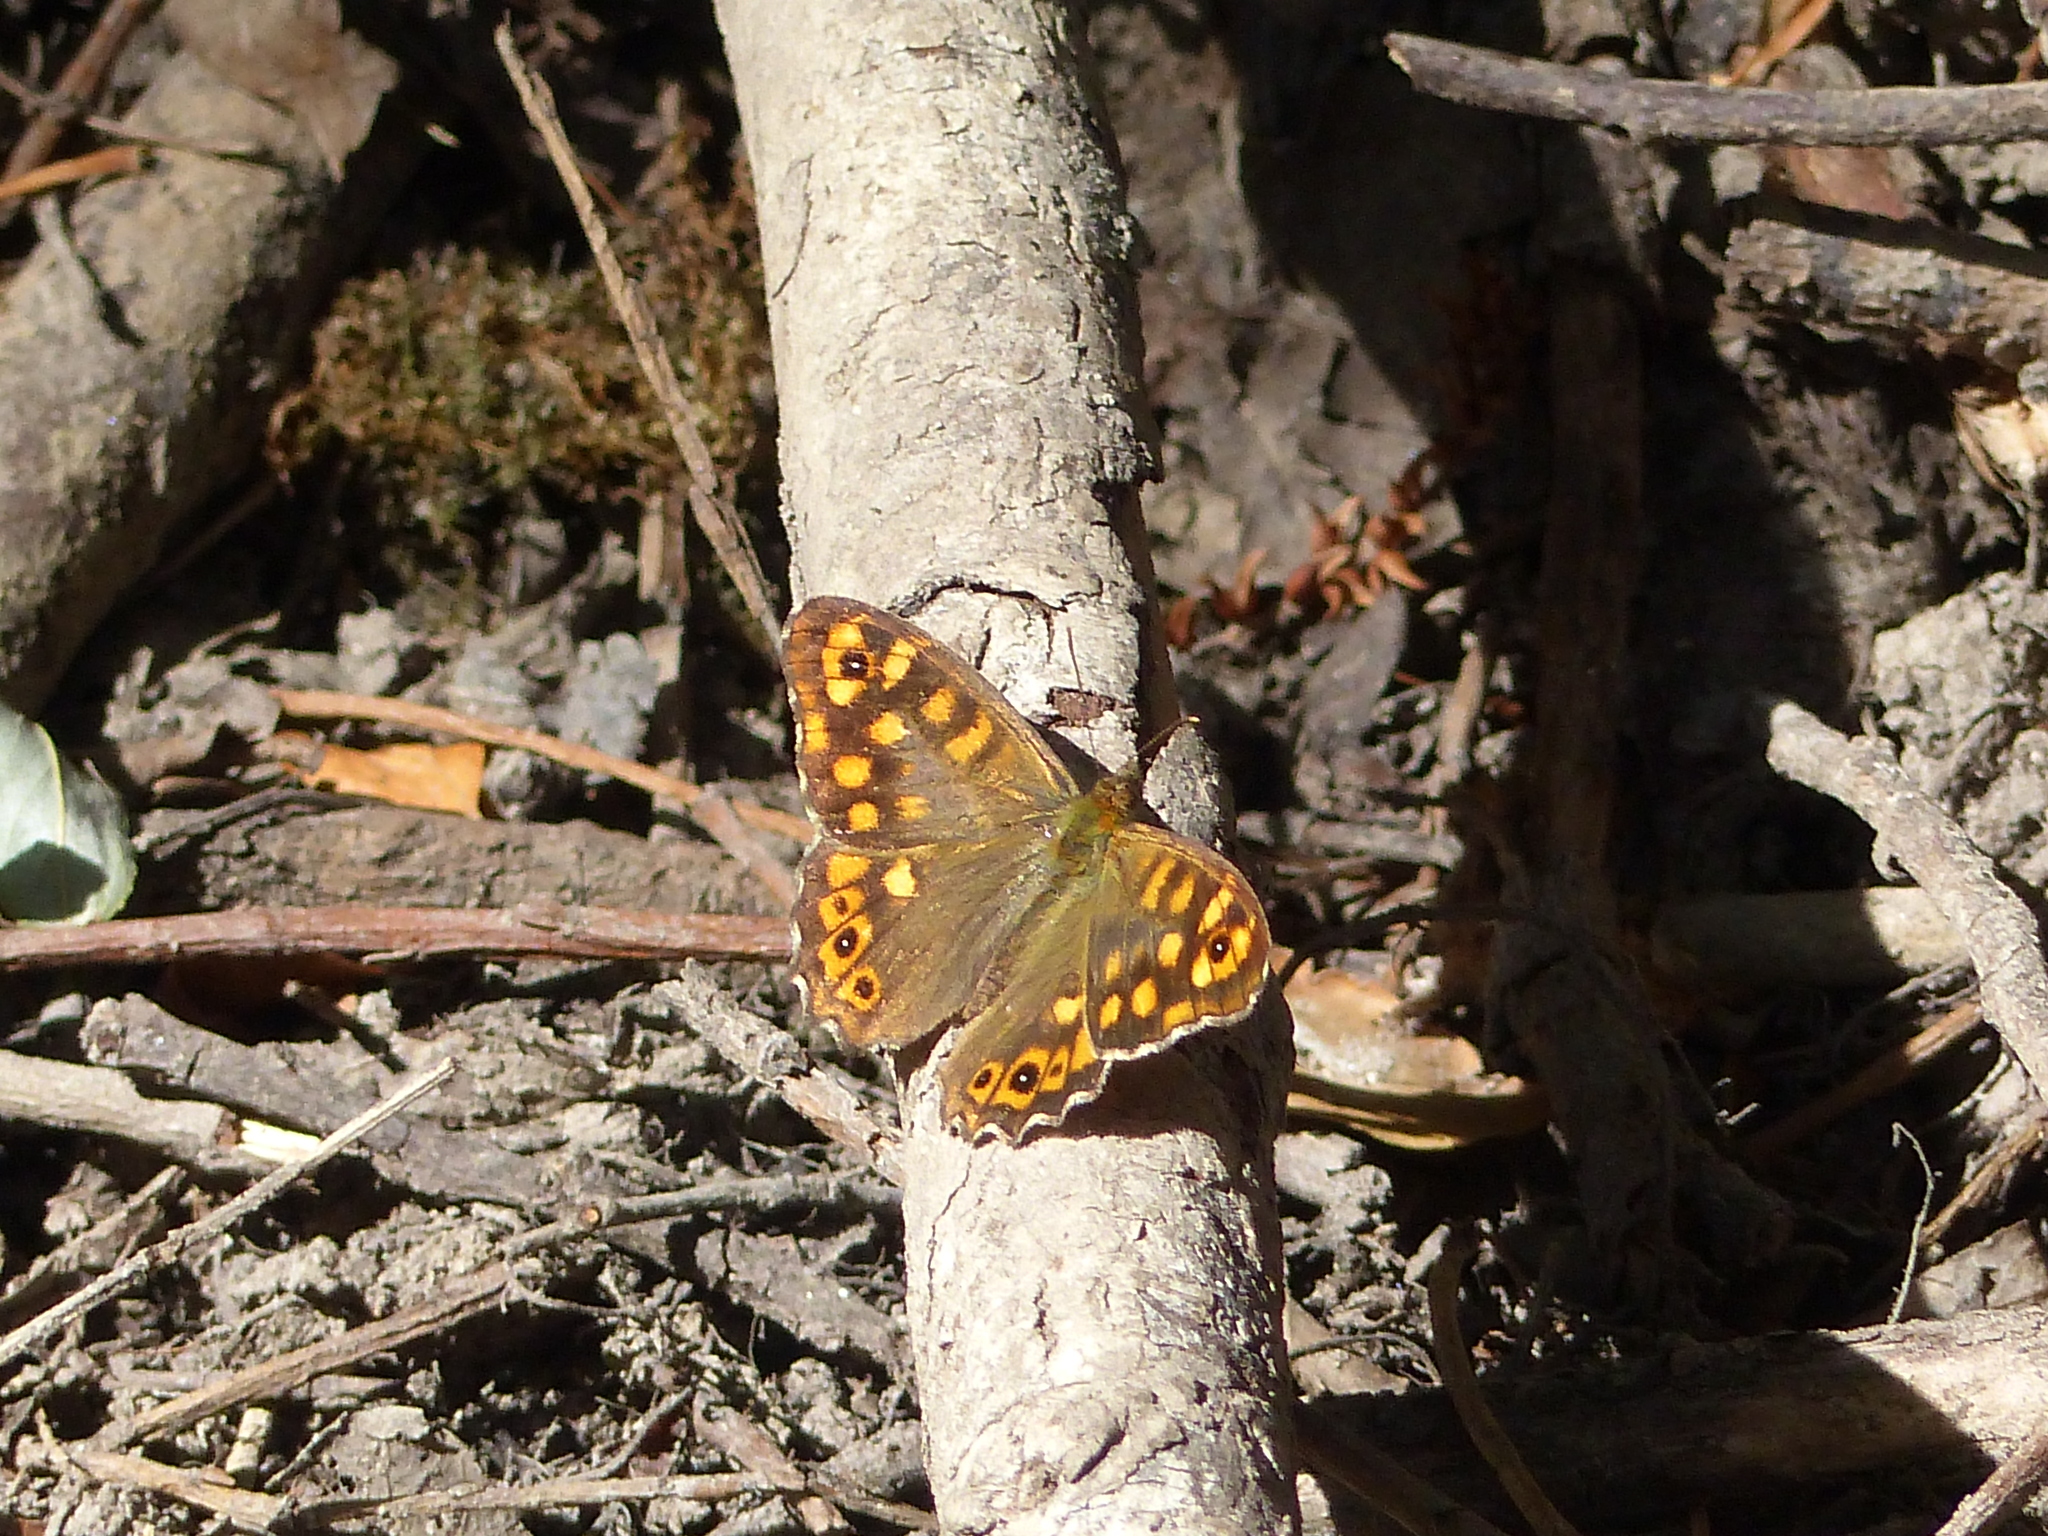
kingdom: Animalia
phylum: Arthropoda
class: Insecta
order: Lepidoptera
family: Nymphalidae
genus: Pararge
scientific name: Pararge aegeria
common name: Speckled wood
